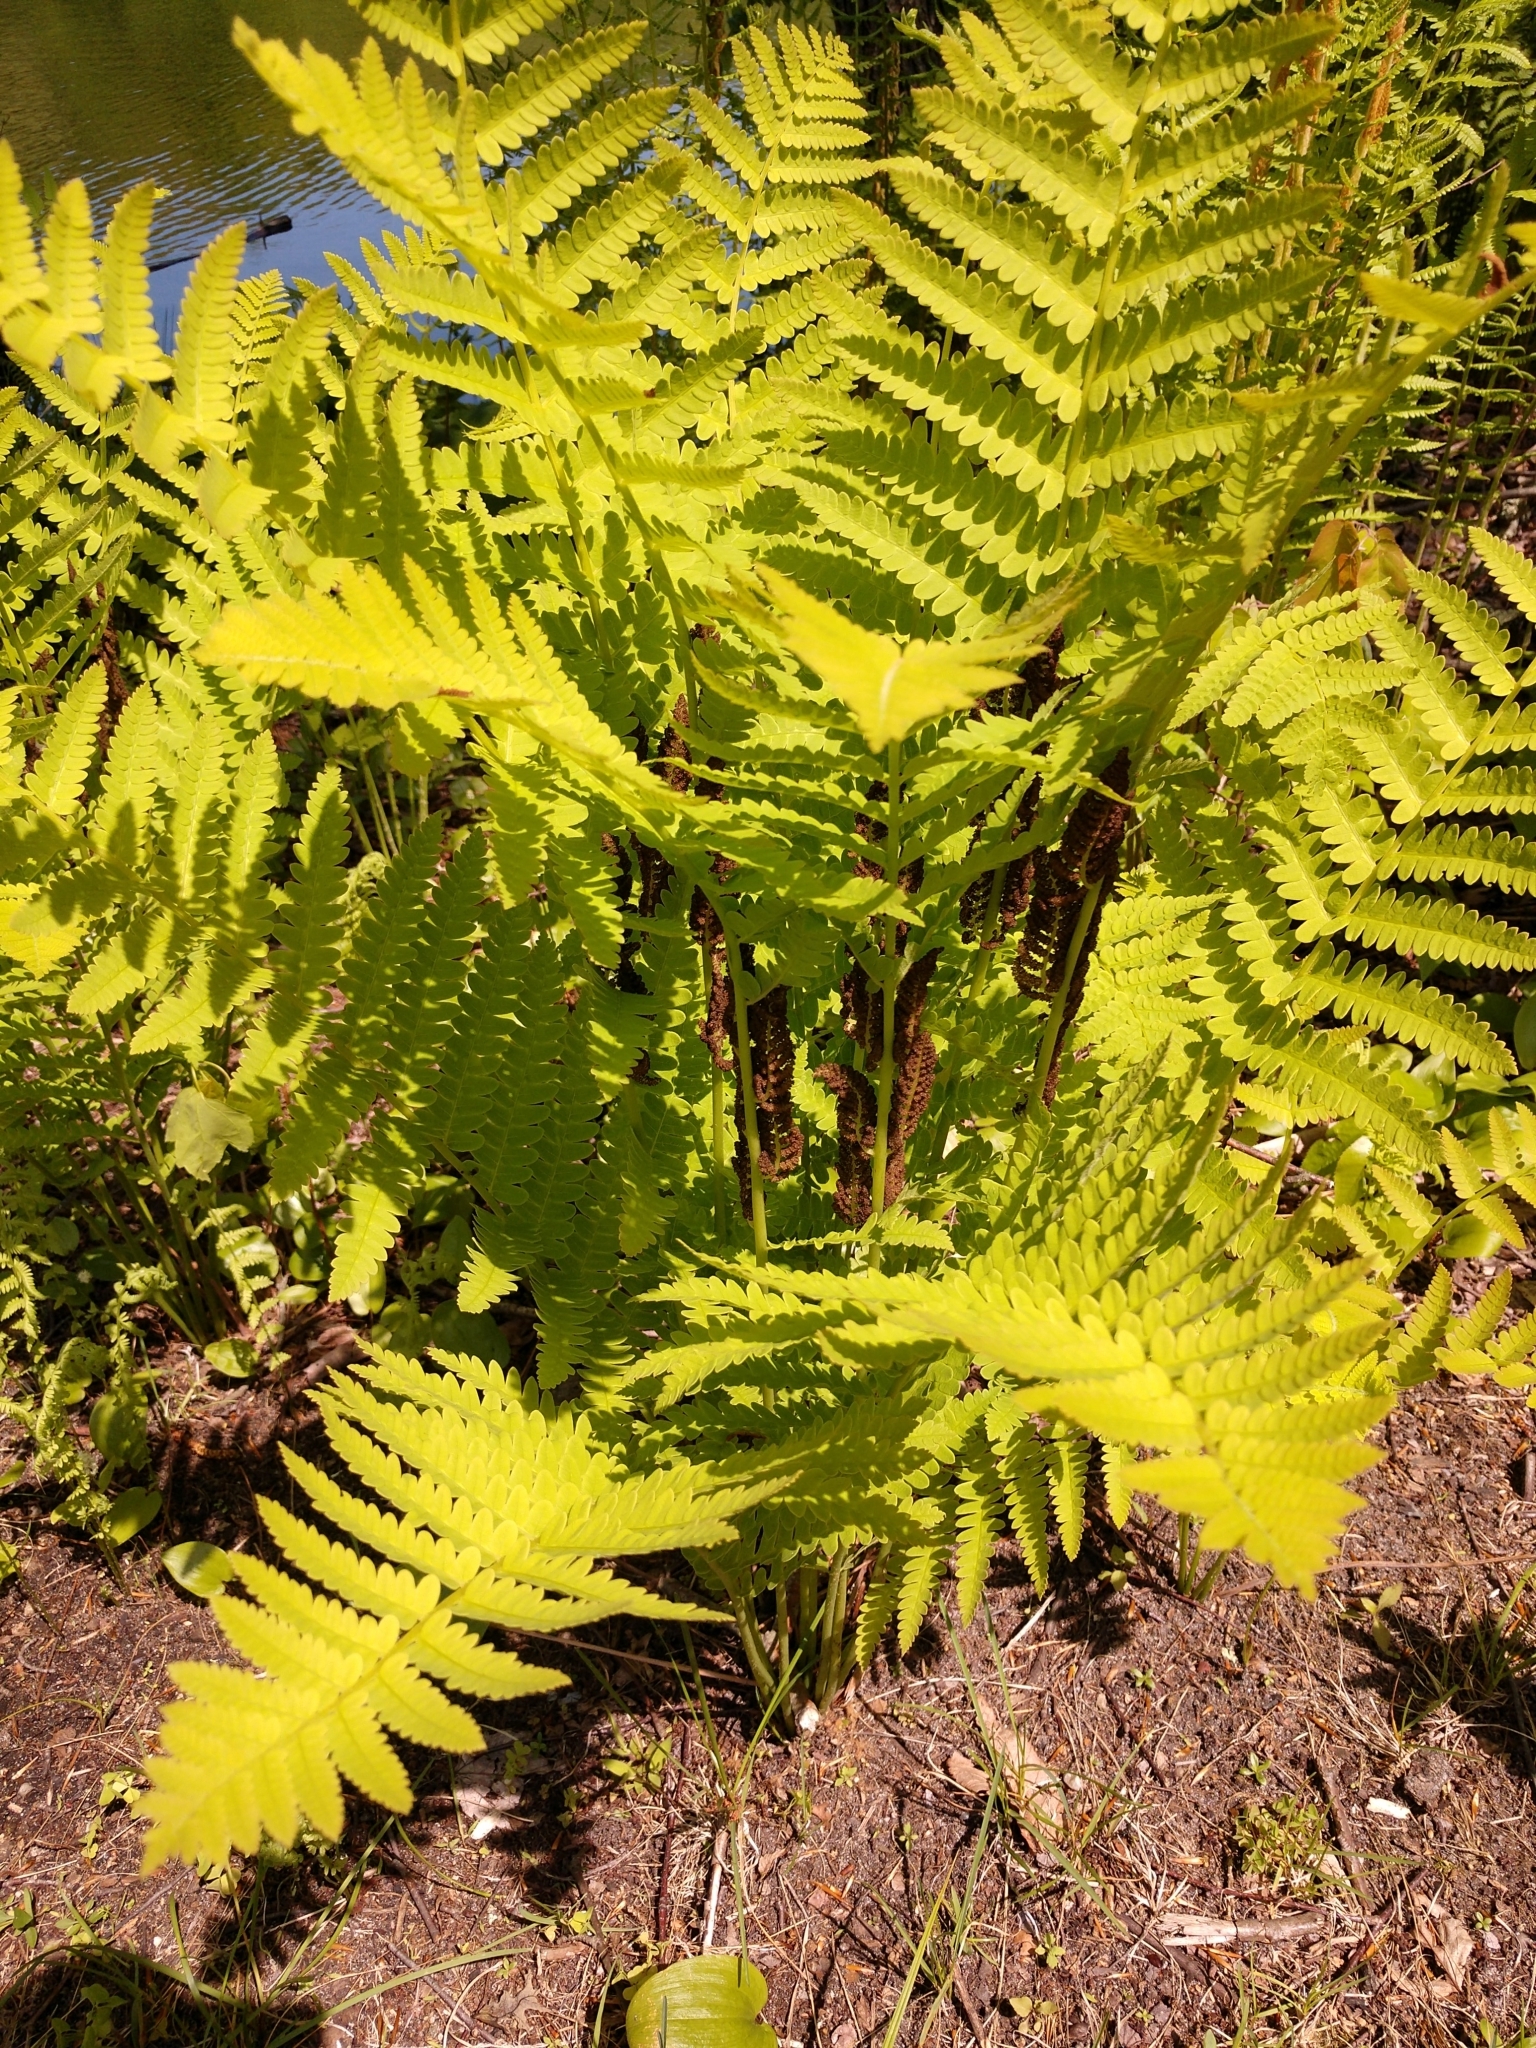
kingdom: Plantae
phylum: Tracheophyta
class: Polypodiopsida
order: Osmundales
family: Osmundaceae
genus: Claytosmunda
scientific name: Claytosmunda claytoniana
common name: Clayton's fern
